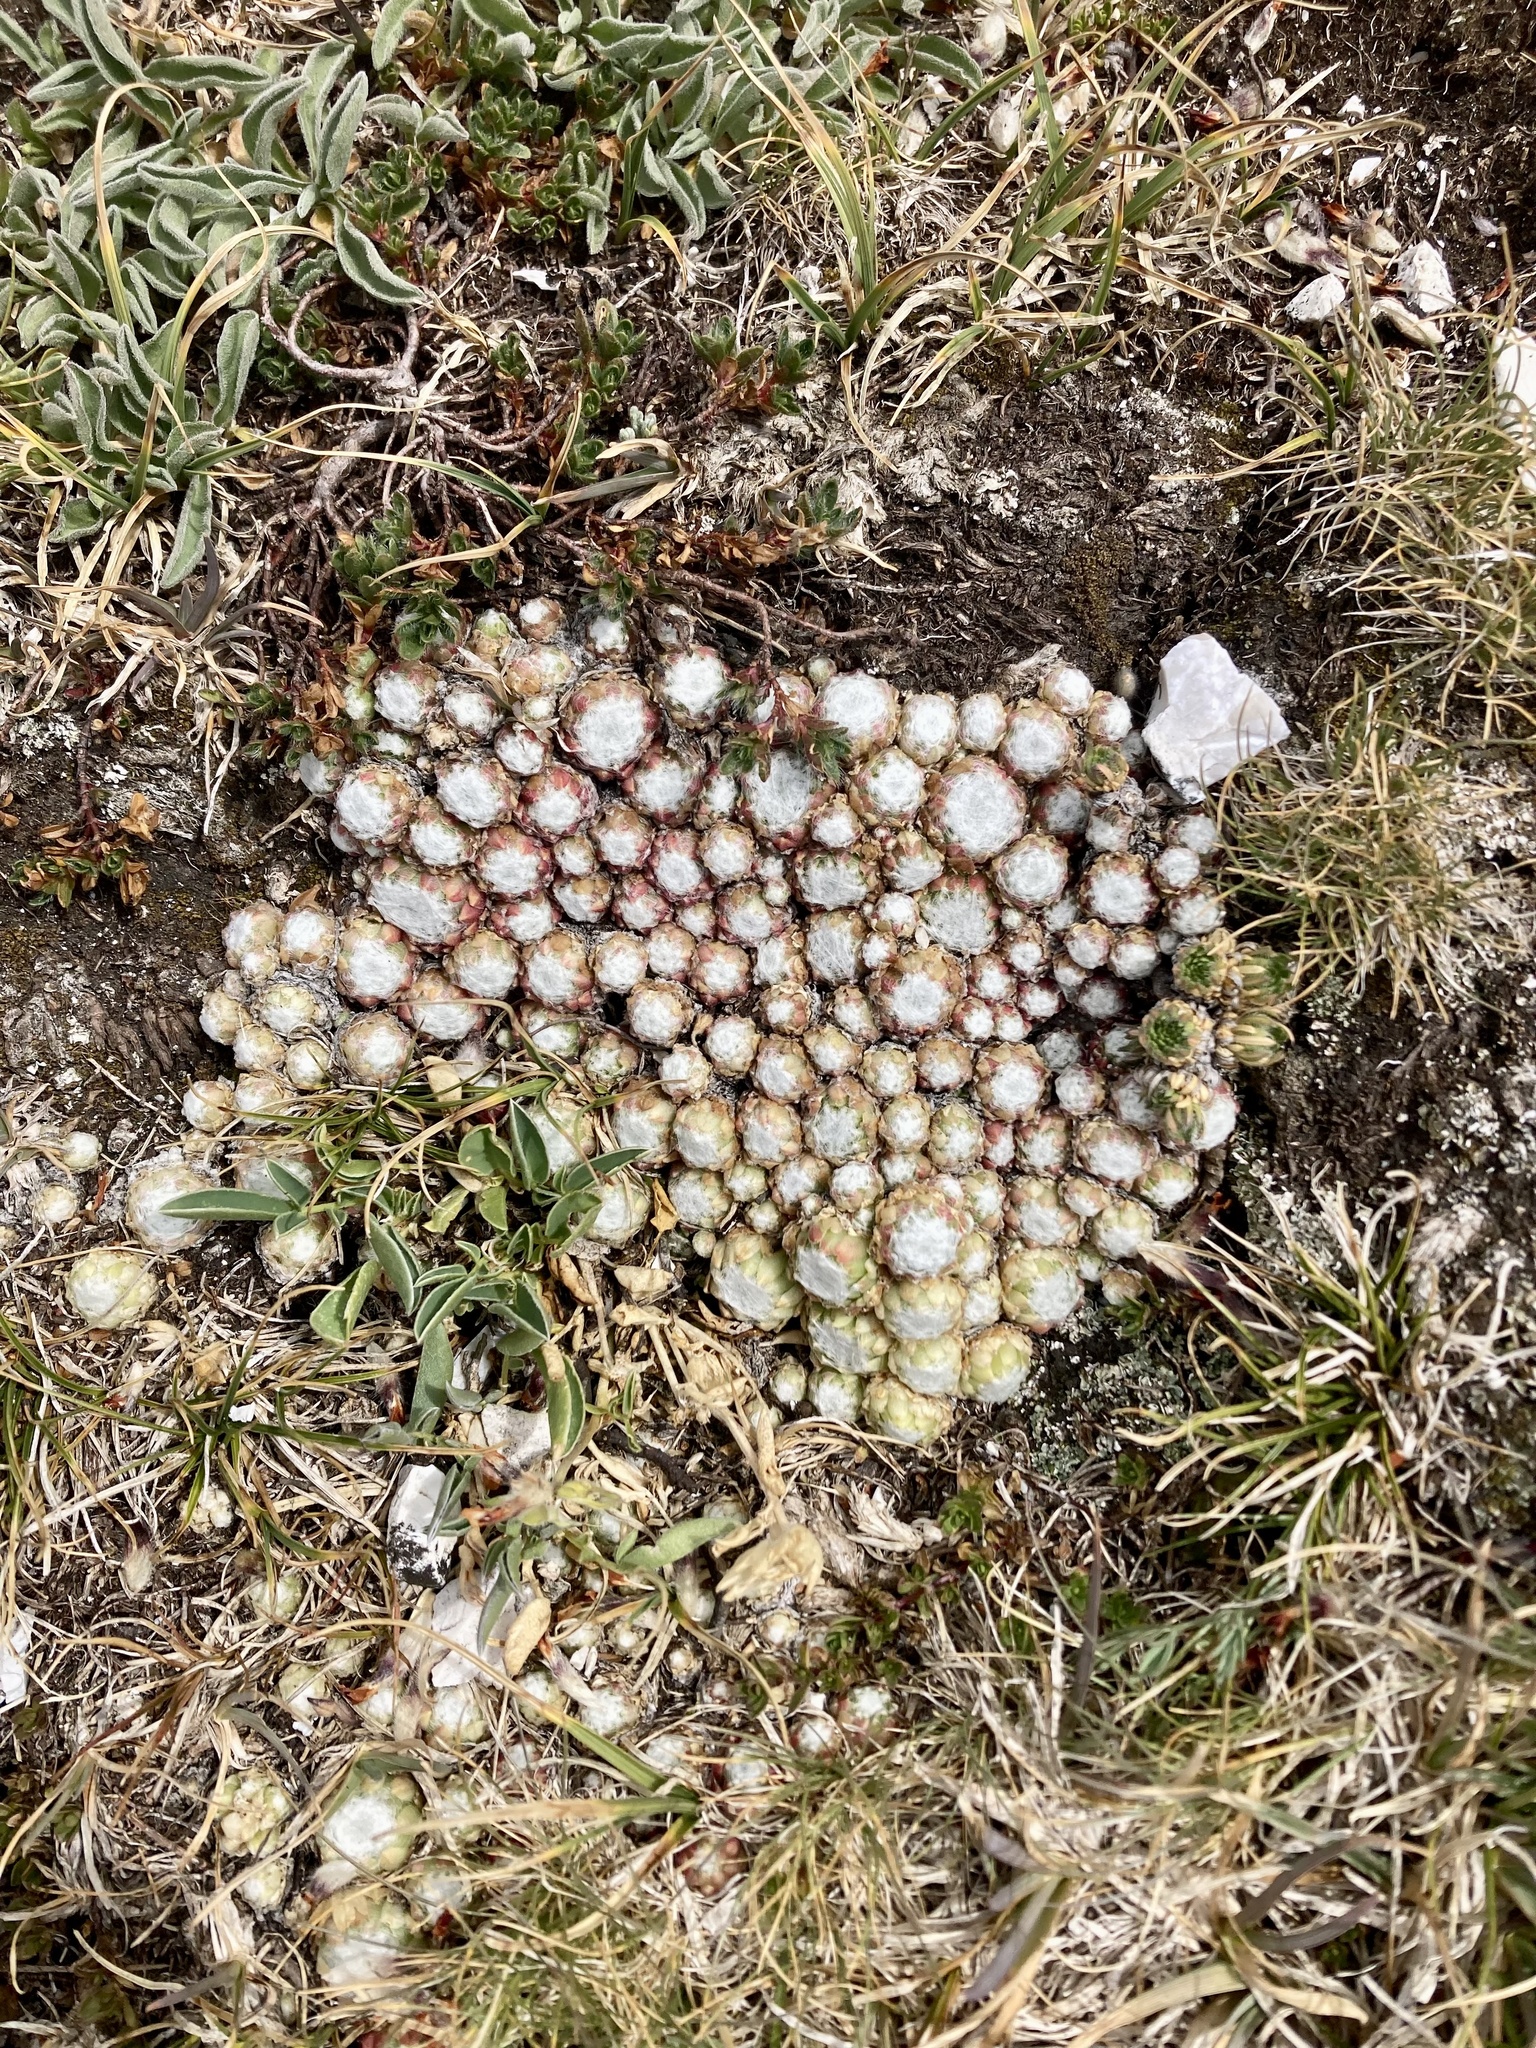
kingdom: Plantae
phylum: Tracheophyta
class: Magnoliopsida
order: Saxifragales
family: Crassulaceae
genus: Sempervivum
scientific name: Sempervivum arachnoideum
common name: Cobweb house-leek
